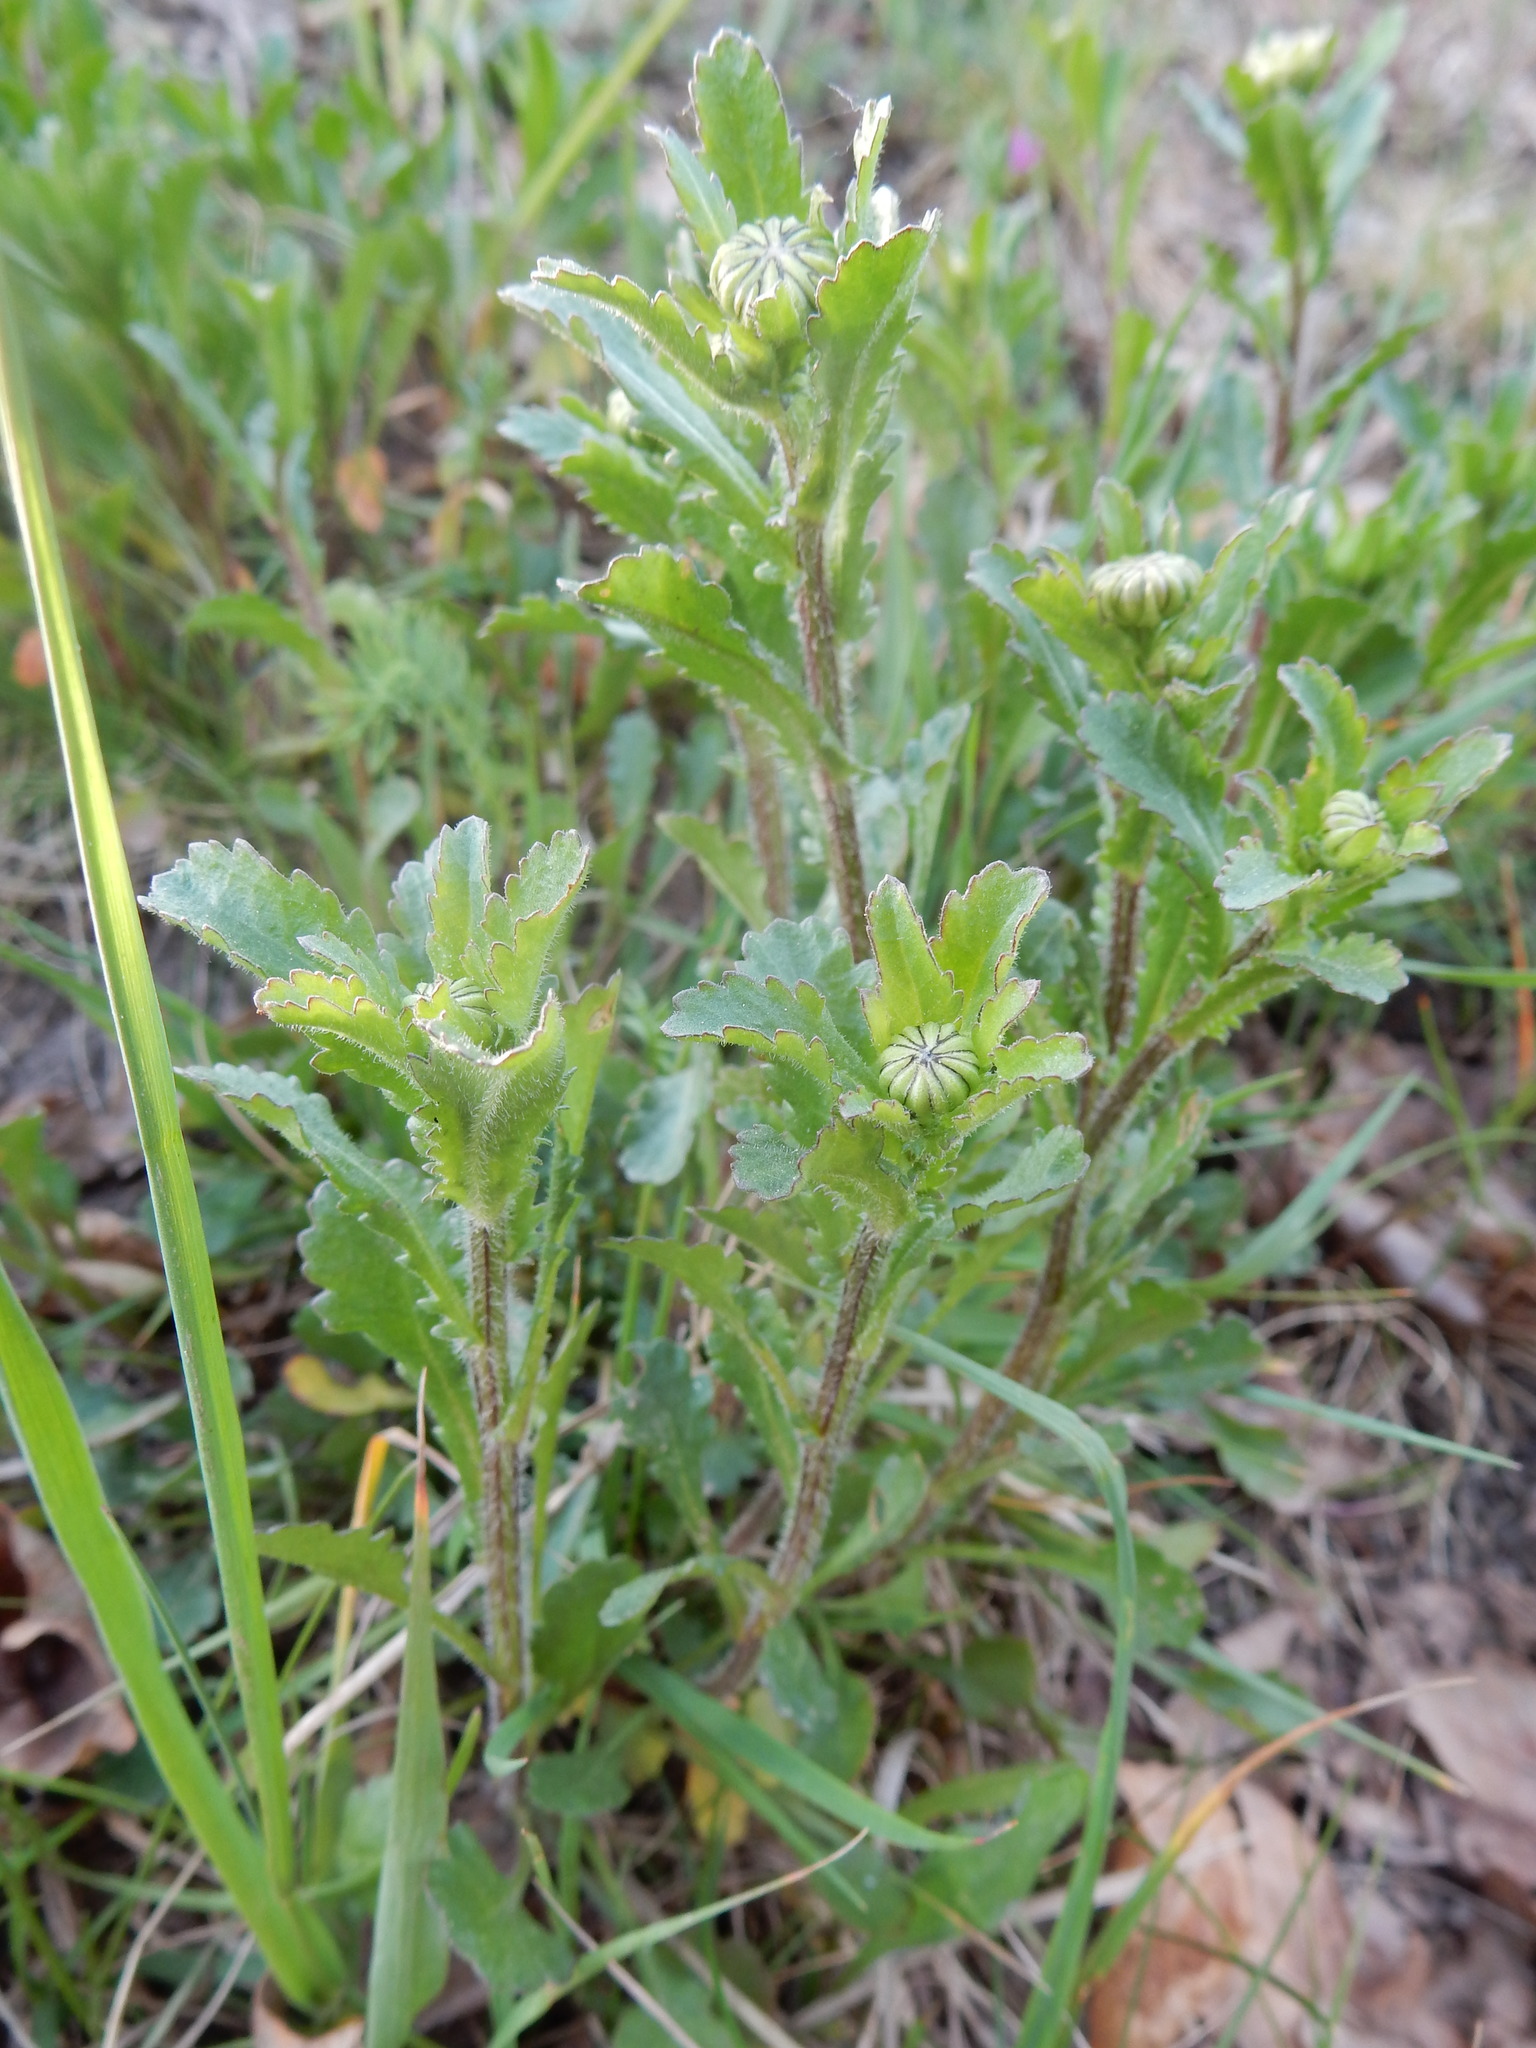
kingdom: Plantae
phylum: Tracheophyta
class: Magnoliopsida
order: Asterales
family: Asteraceae
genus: Leucanthemum
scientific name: Leucanthemum vulgare
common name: Oxeye daisy
